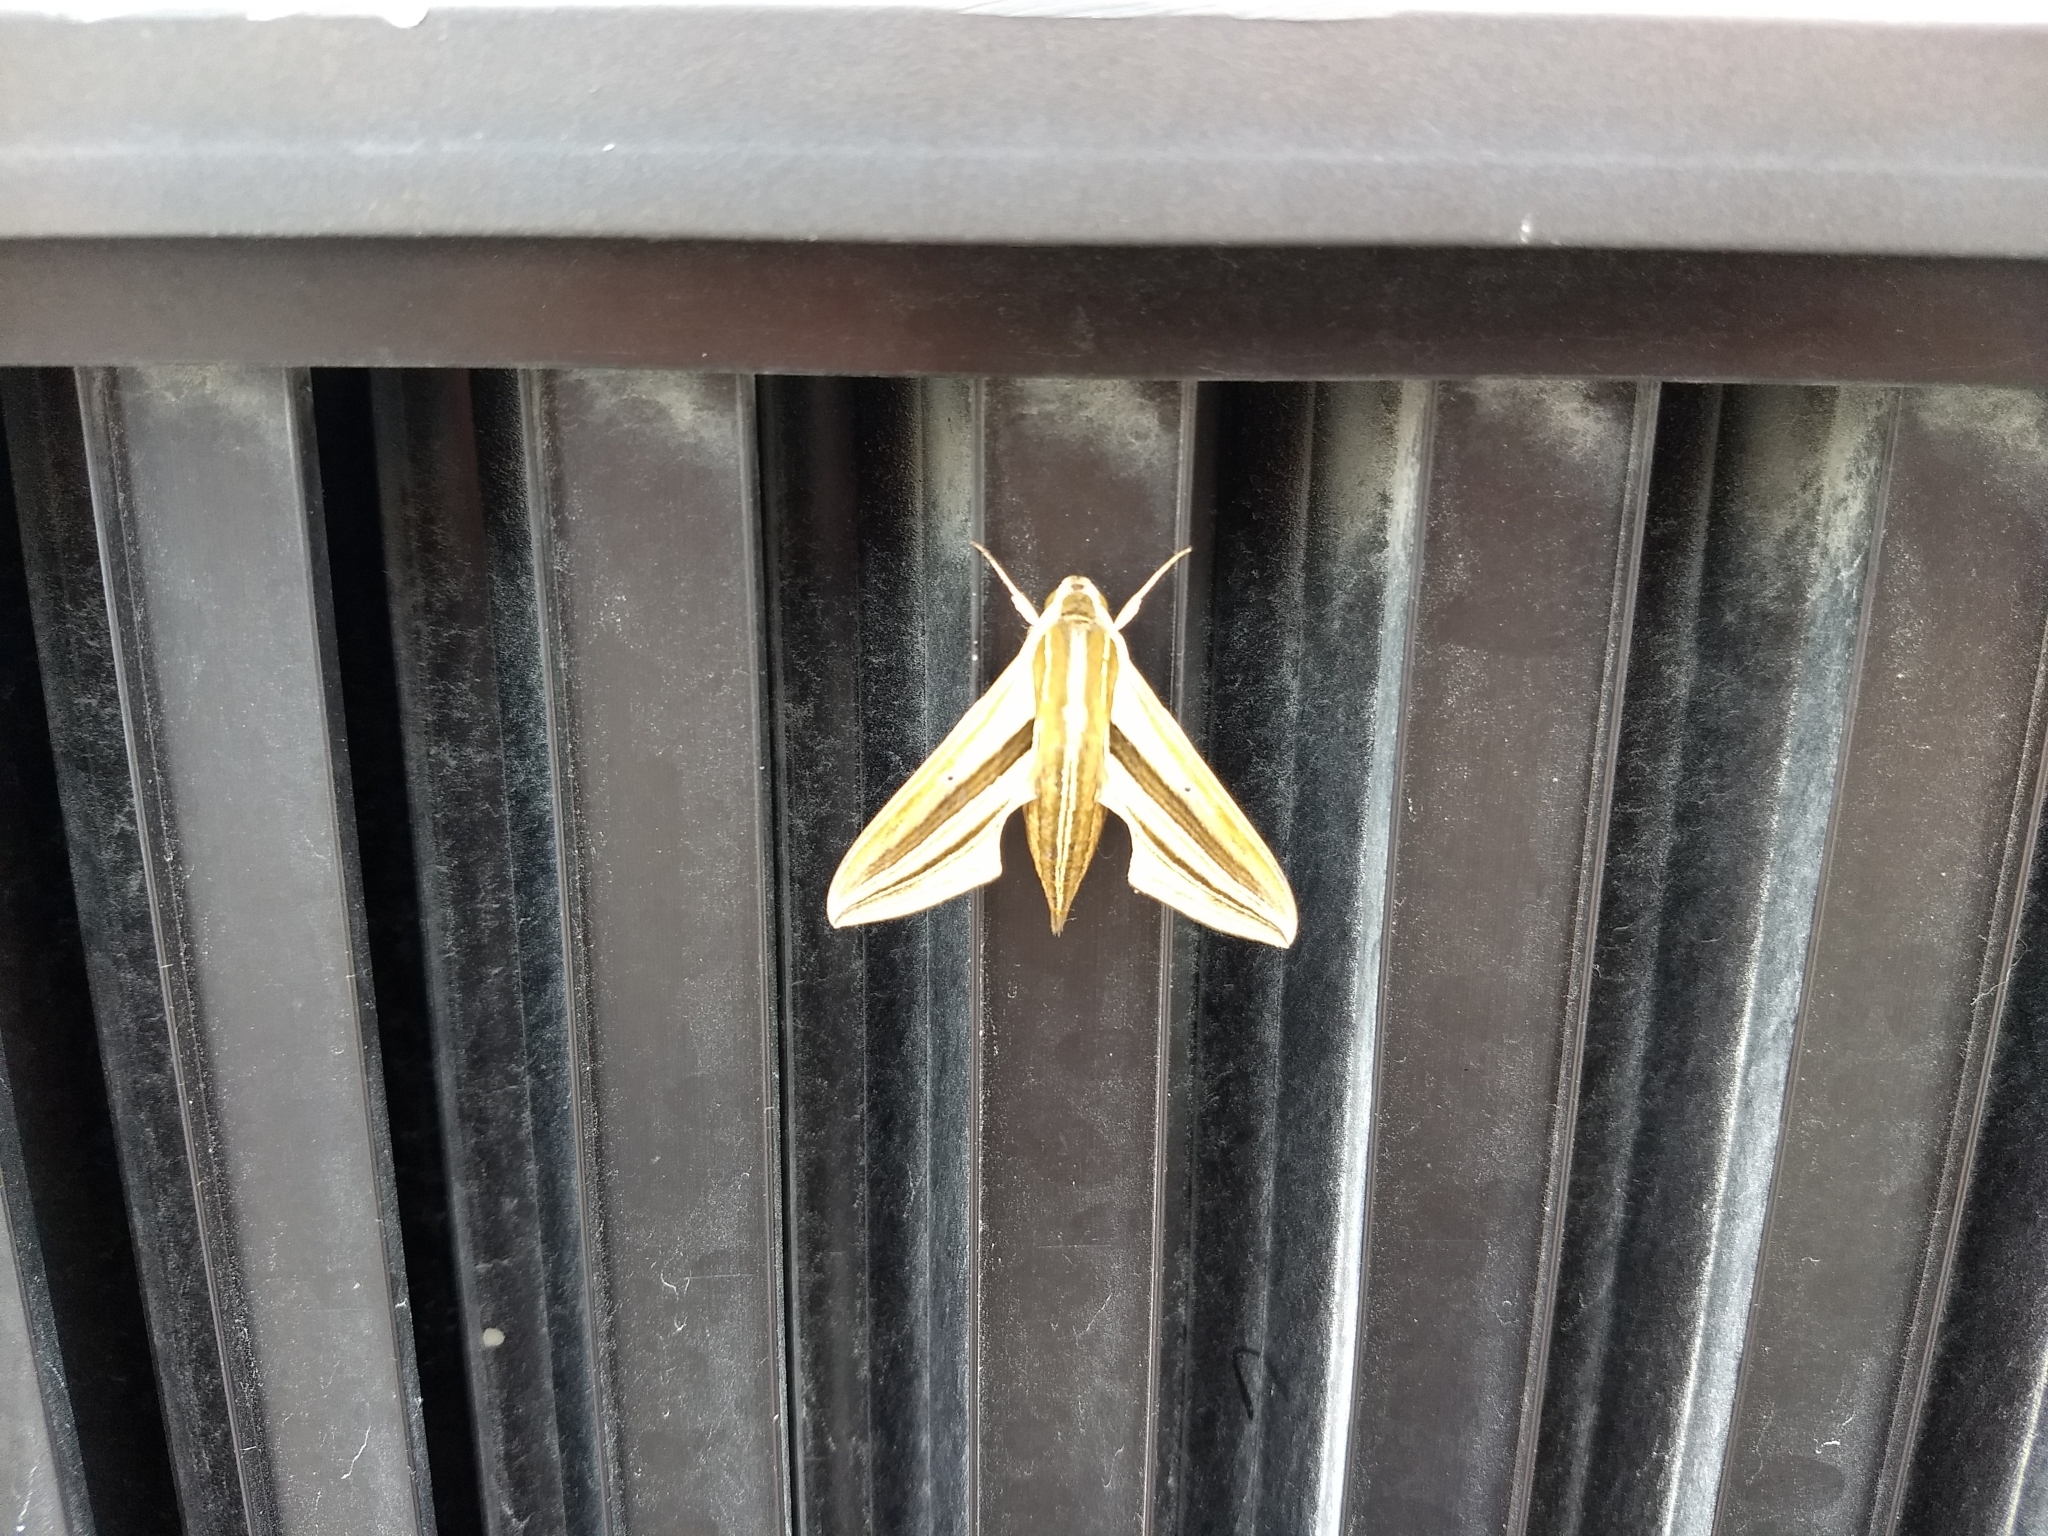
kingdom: Animalia
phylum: Arthropoda
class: Insecta
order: Lepidoptera
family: Sphingidae
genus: Theretra
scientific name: Theretra oldenlandiae
